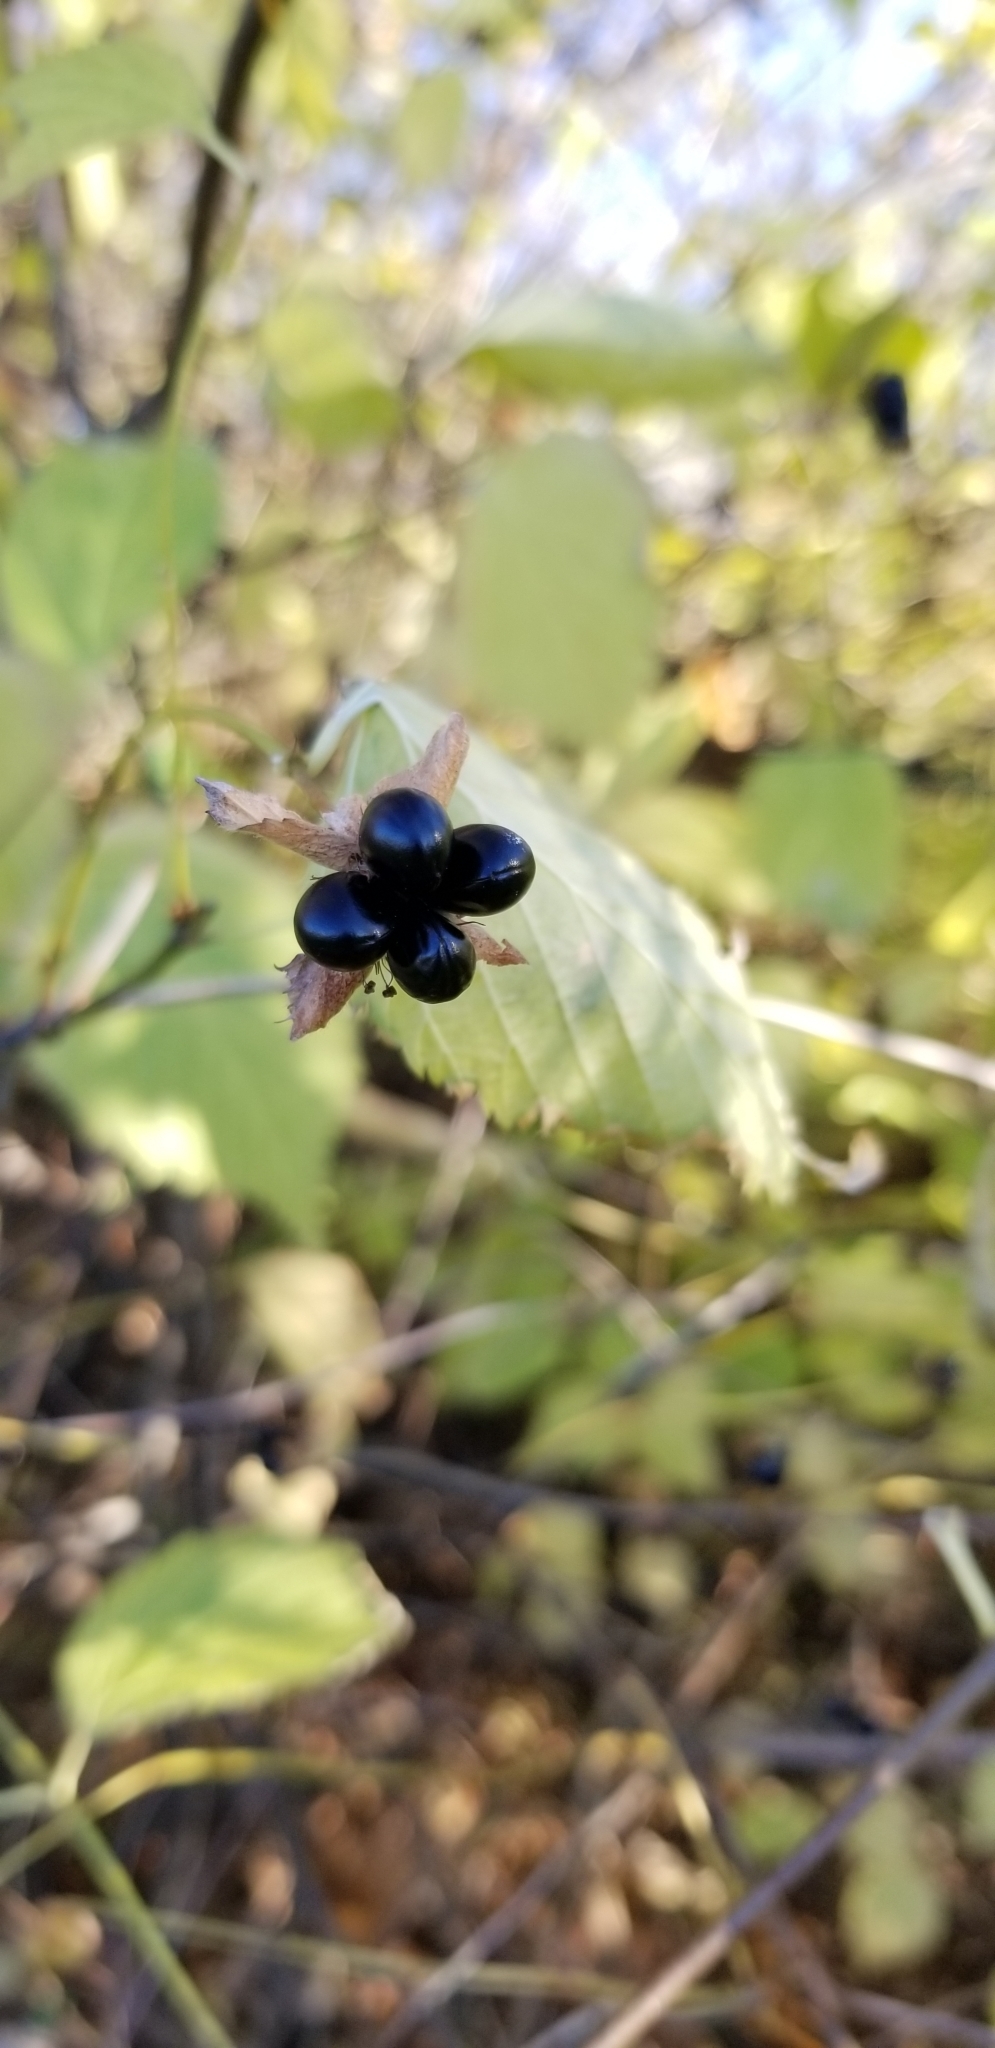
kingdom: Plantae
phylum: Tracheophyta
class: Magnoliopsida
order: Rosales
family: Rosaceae
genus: Rhodotypos
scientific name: Rhodotypos scandens
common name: Jetbead
